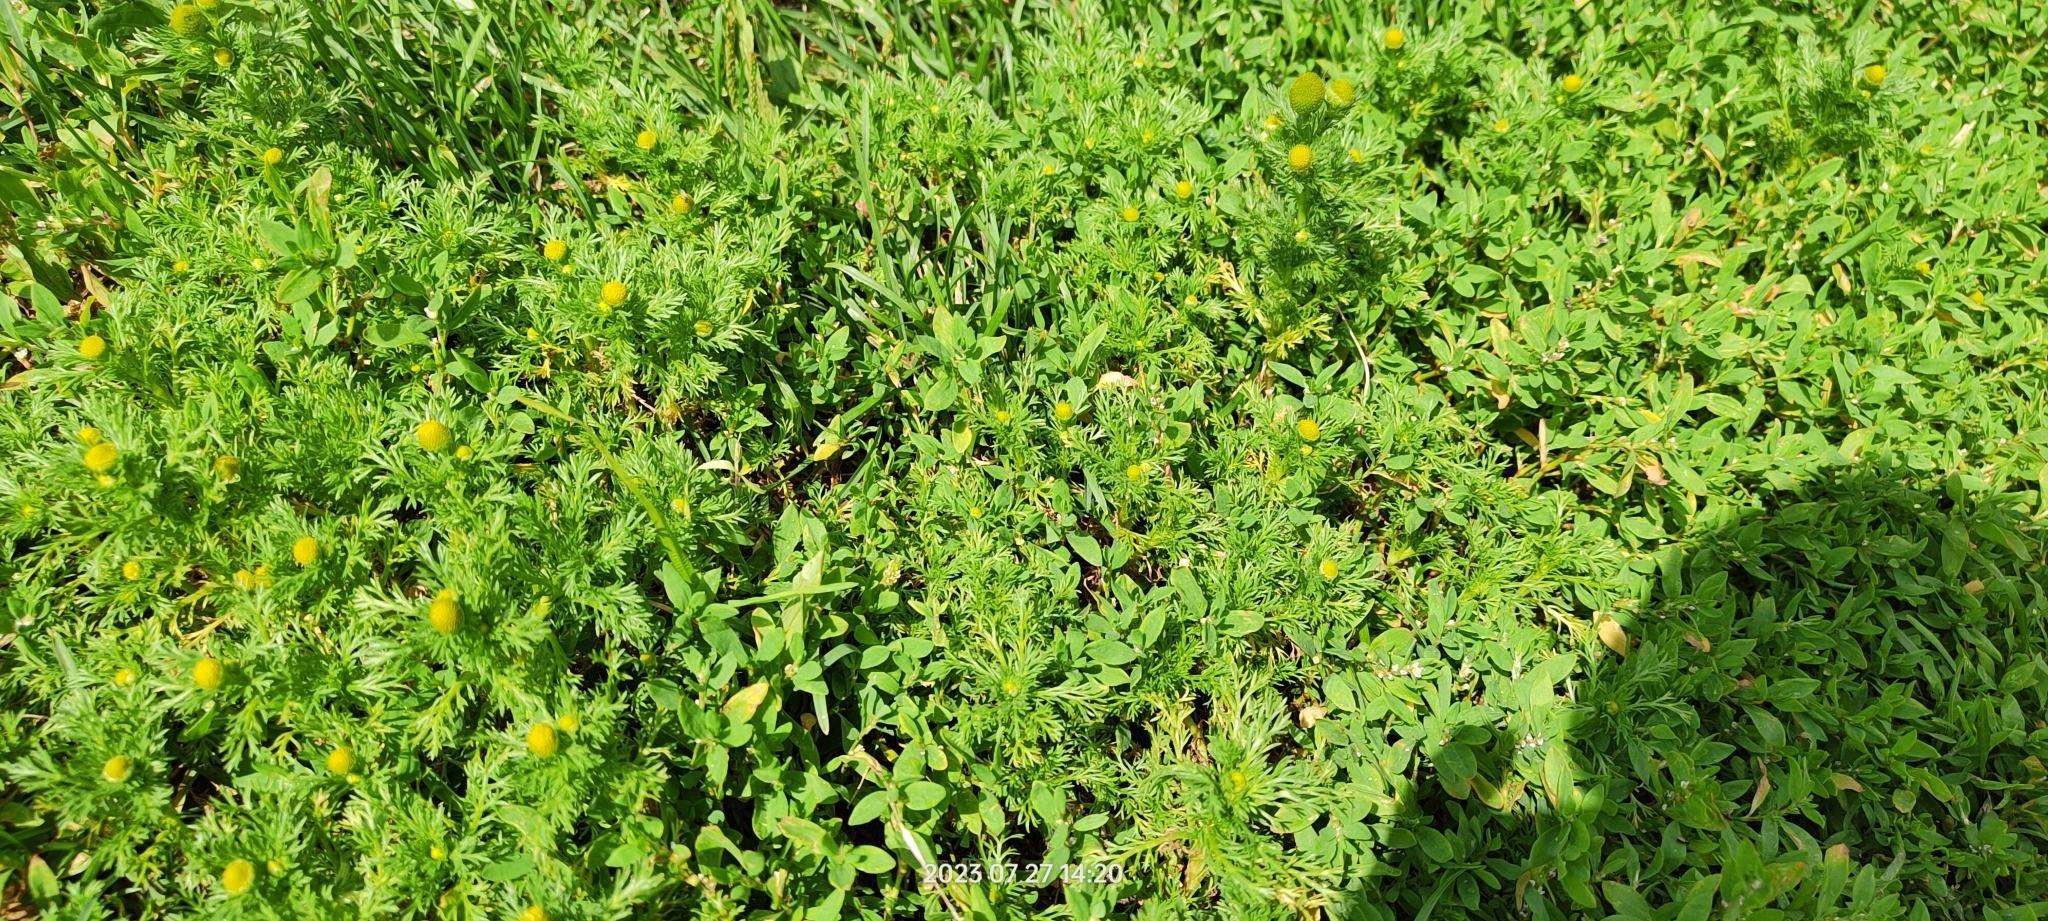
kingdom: Plantae
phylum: Tracheophyta
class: Magnoliopsida
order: Asterales
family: Asteraceae
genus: Matricaria
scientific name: Matricaria discoidea
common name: Disc mayweed
